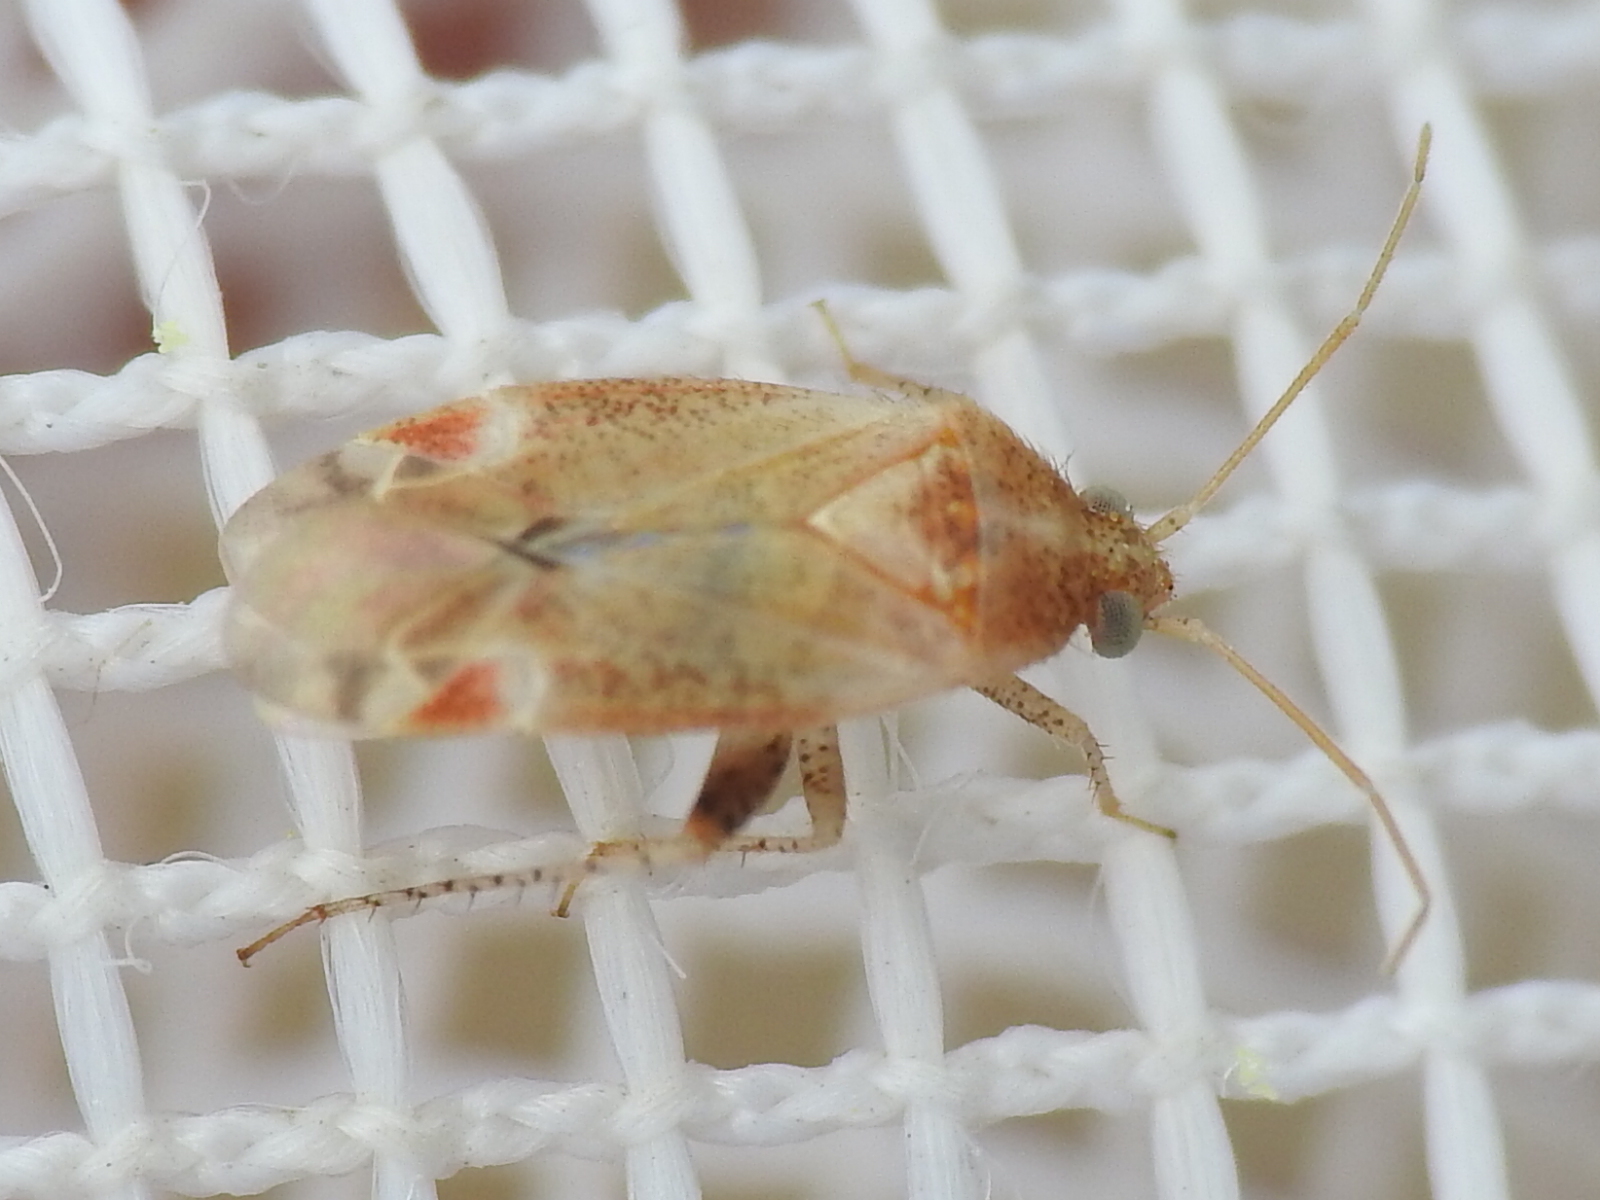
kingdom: Animalia
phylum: Arthropoda
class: Insecta
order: Hemiptera
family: Miridae
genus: Hamatophylus
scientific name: Hamatophylus guttulosus
